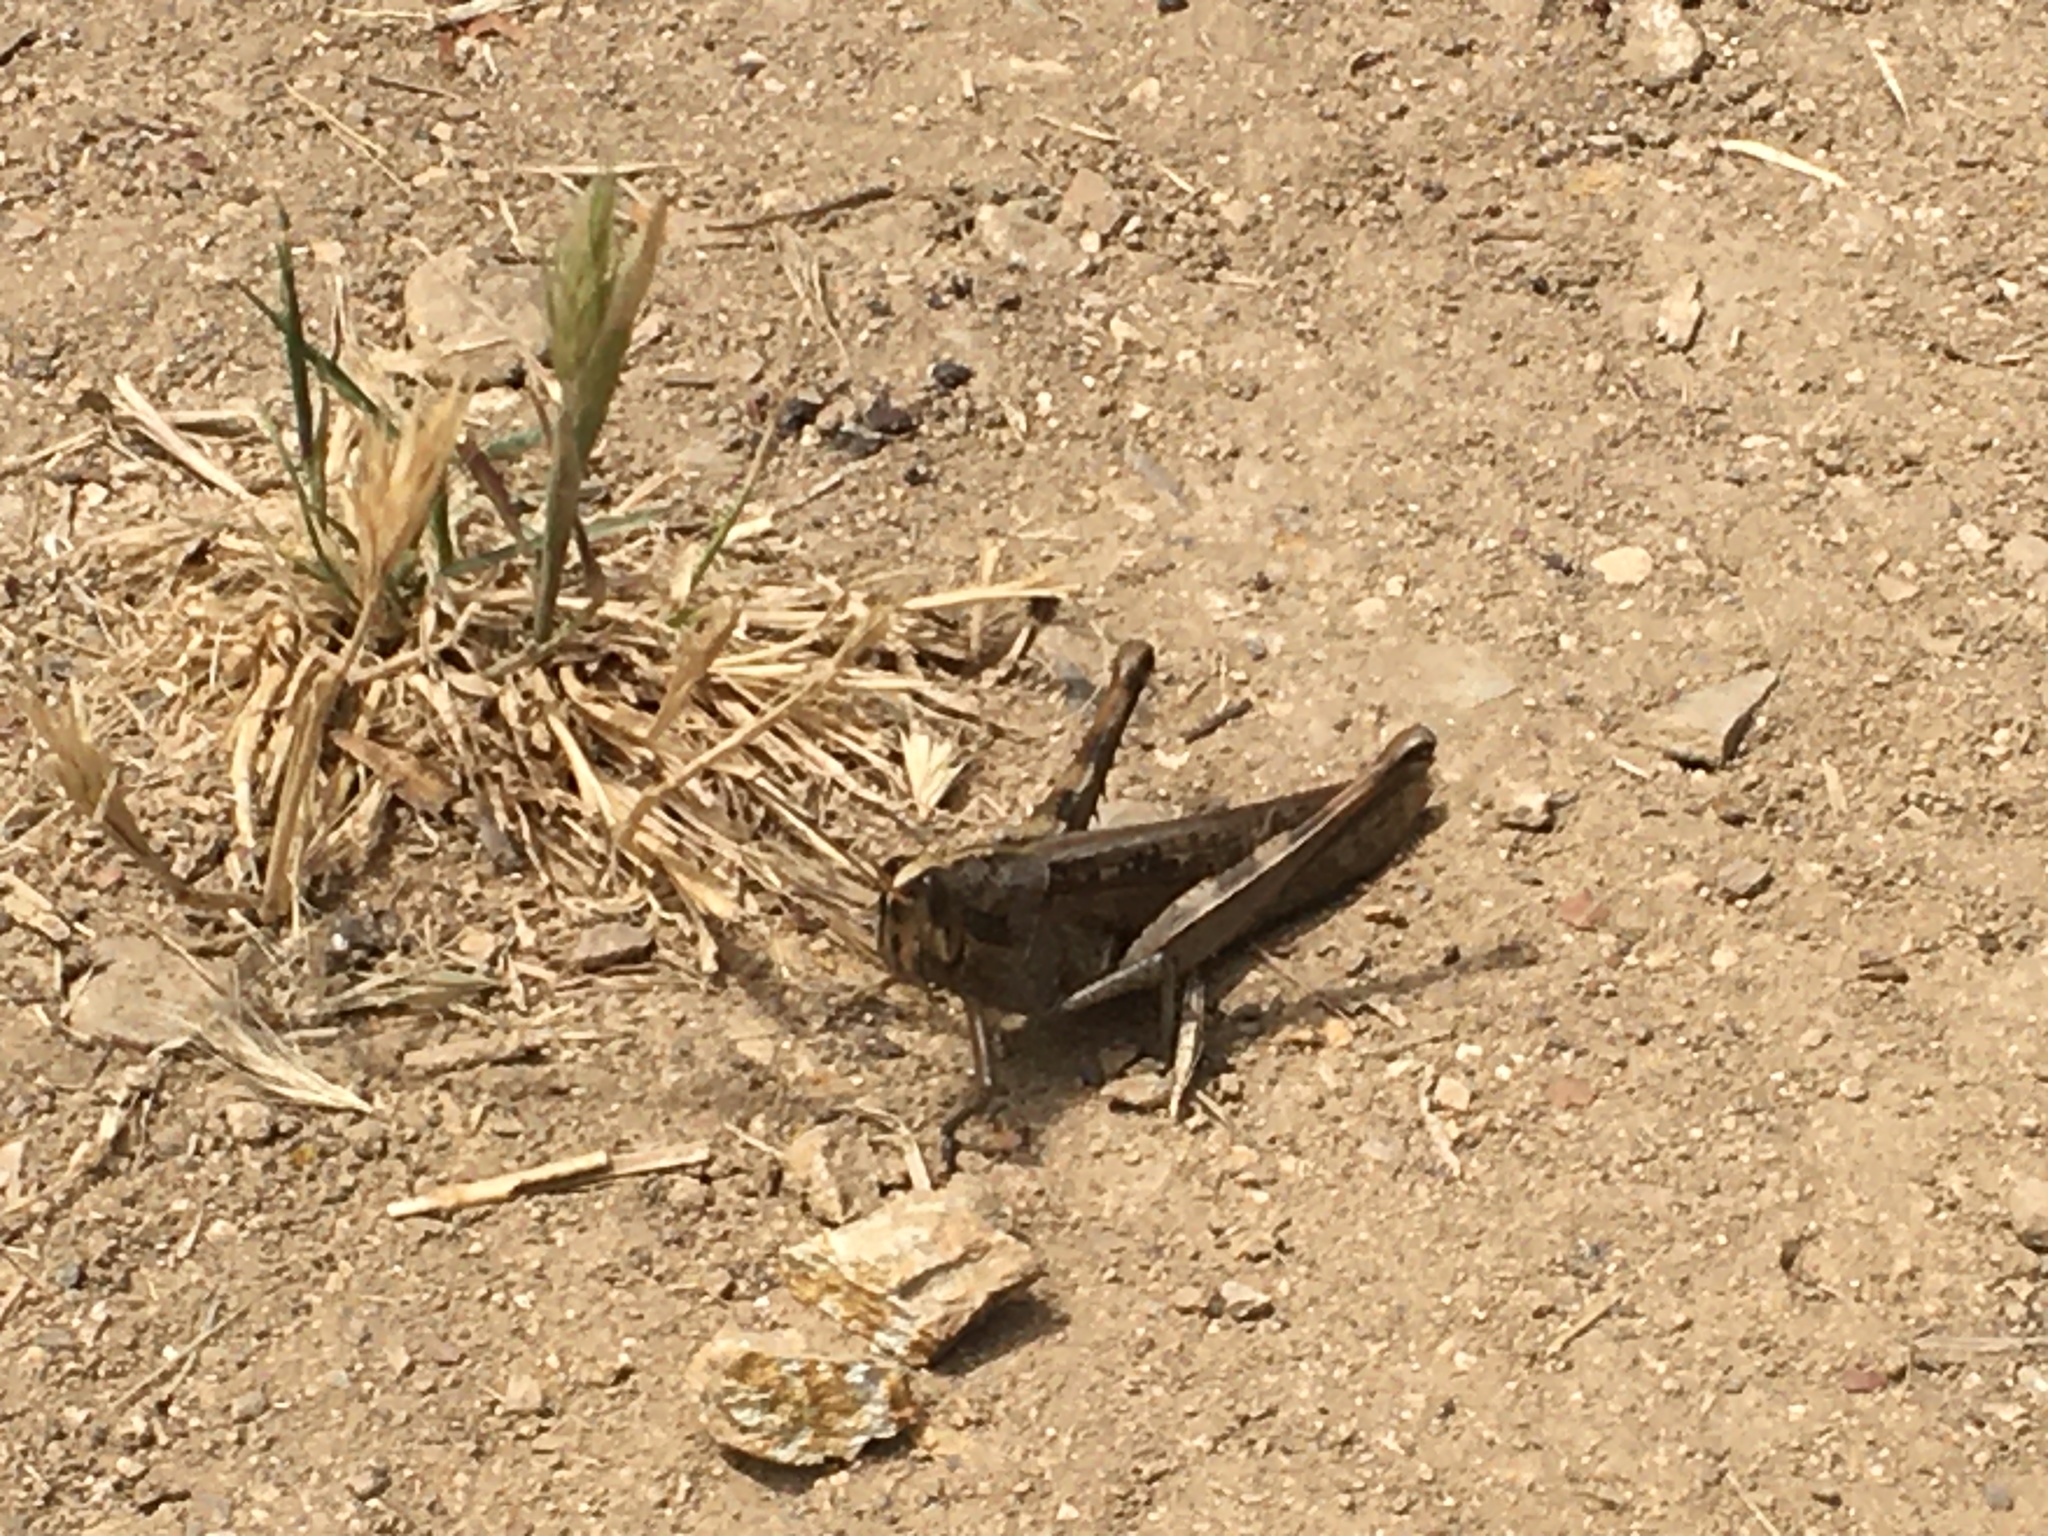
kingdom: Animalia
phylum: Arthropoda
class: Insecta
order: Orthoptera
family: Acrididae
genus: Schistocerca
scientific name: Schistocerca nitens
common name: Vagrant grasshopper
